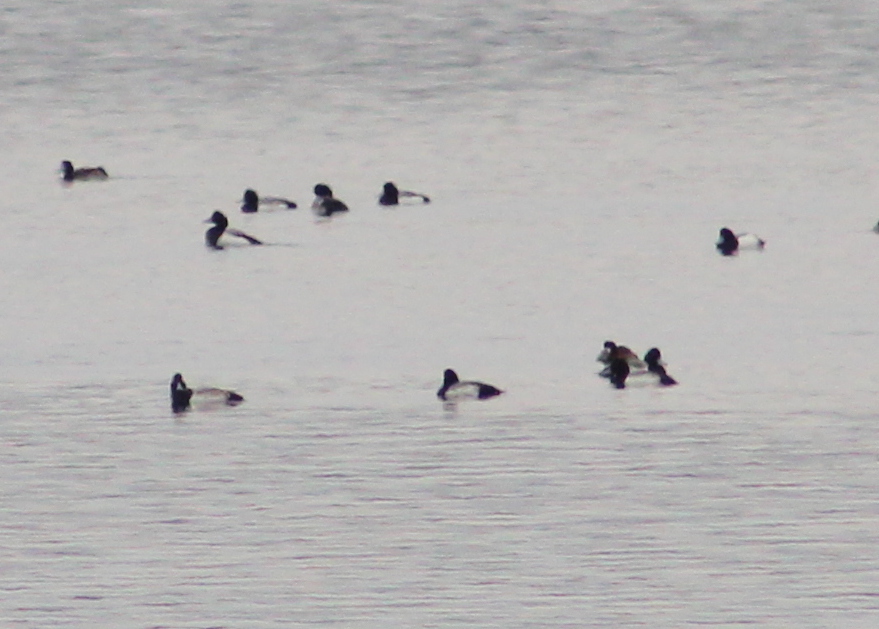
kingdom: Animalia
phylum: Chordata
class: Aves
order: Anseriformes
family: Anatidae
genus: Aythya
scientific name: Aythya marila
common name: Greater scaup
